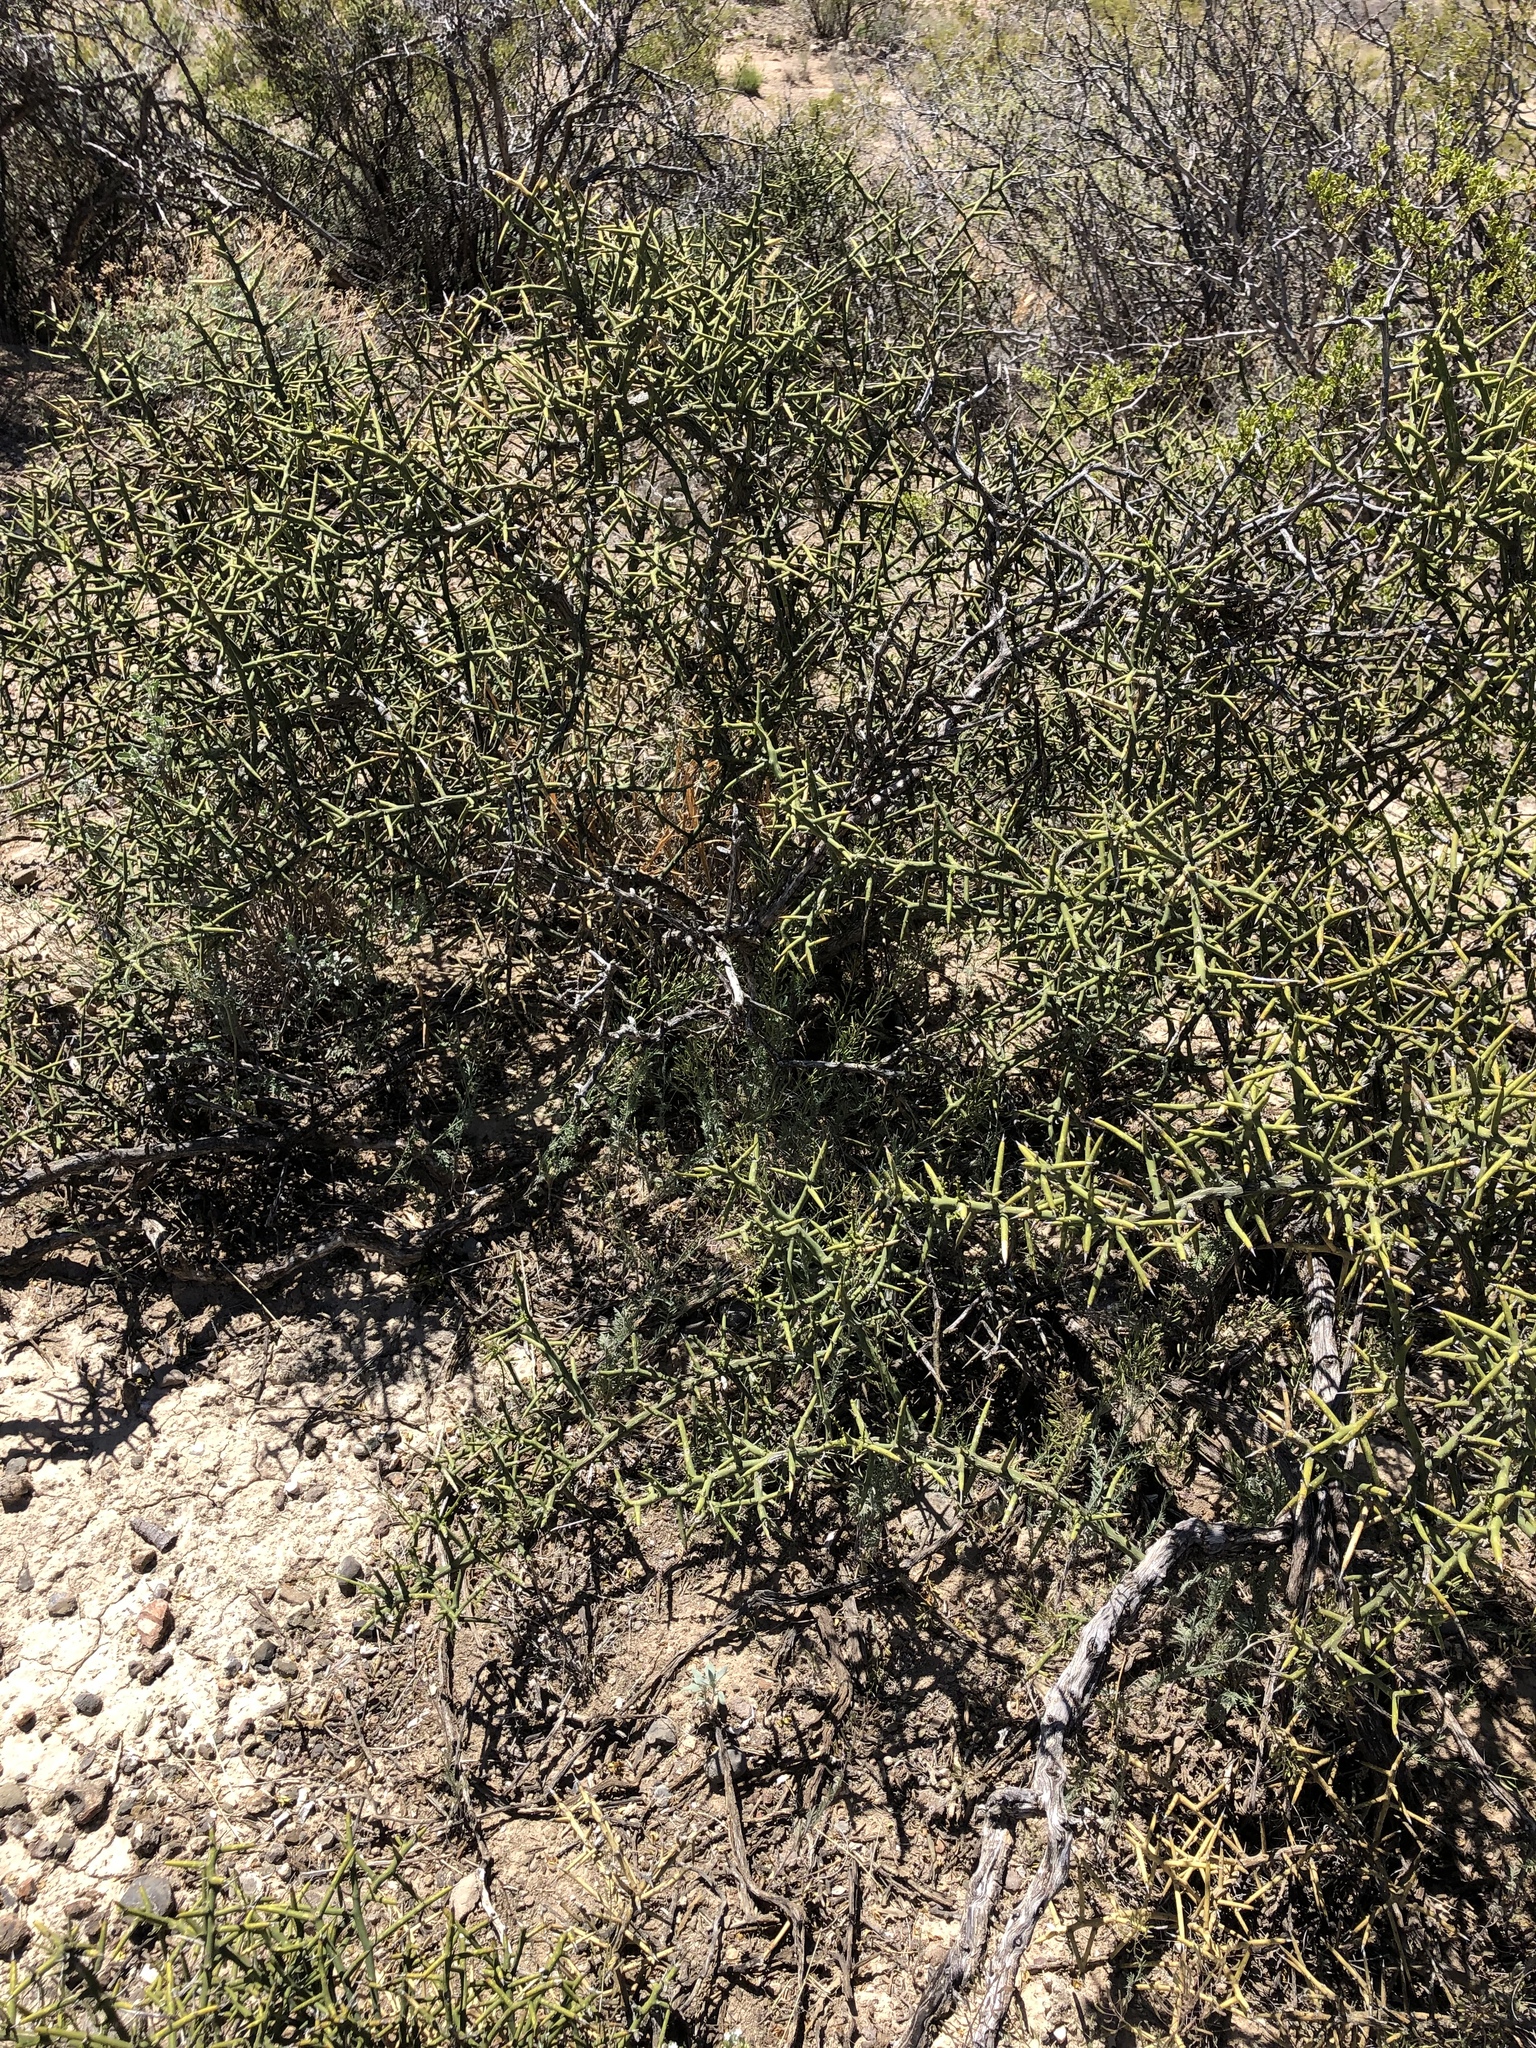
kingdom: Plantae
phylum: Tracheophyta
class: Magnoliopsida
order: Brassicales
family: Koeberliniaceae
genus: Koeberlinia
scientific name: Koeberlinia spinosa
